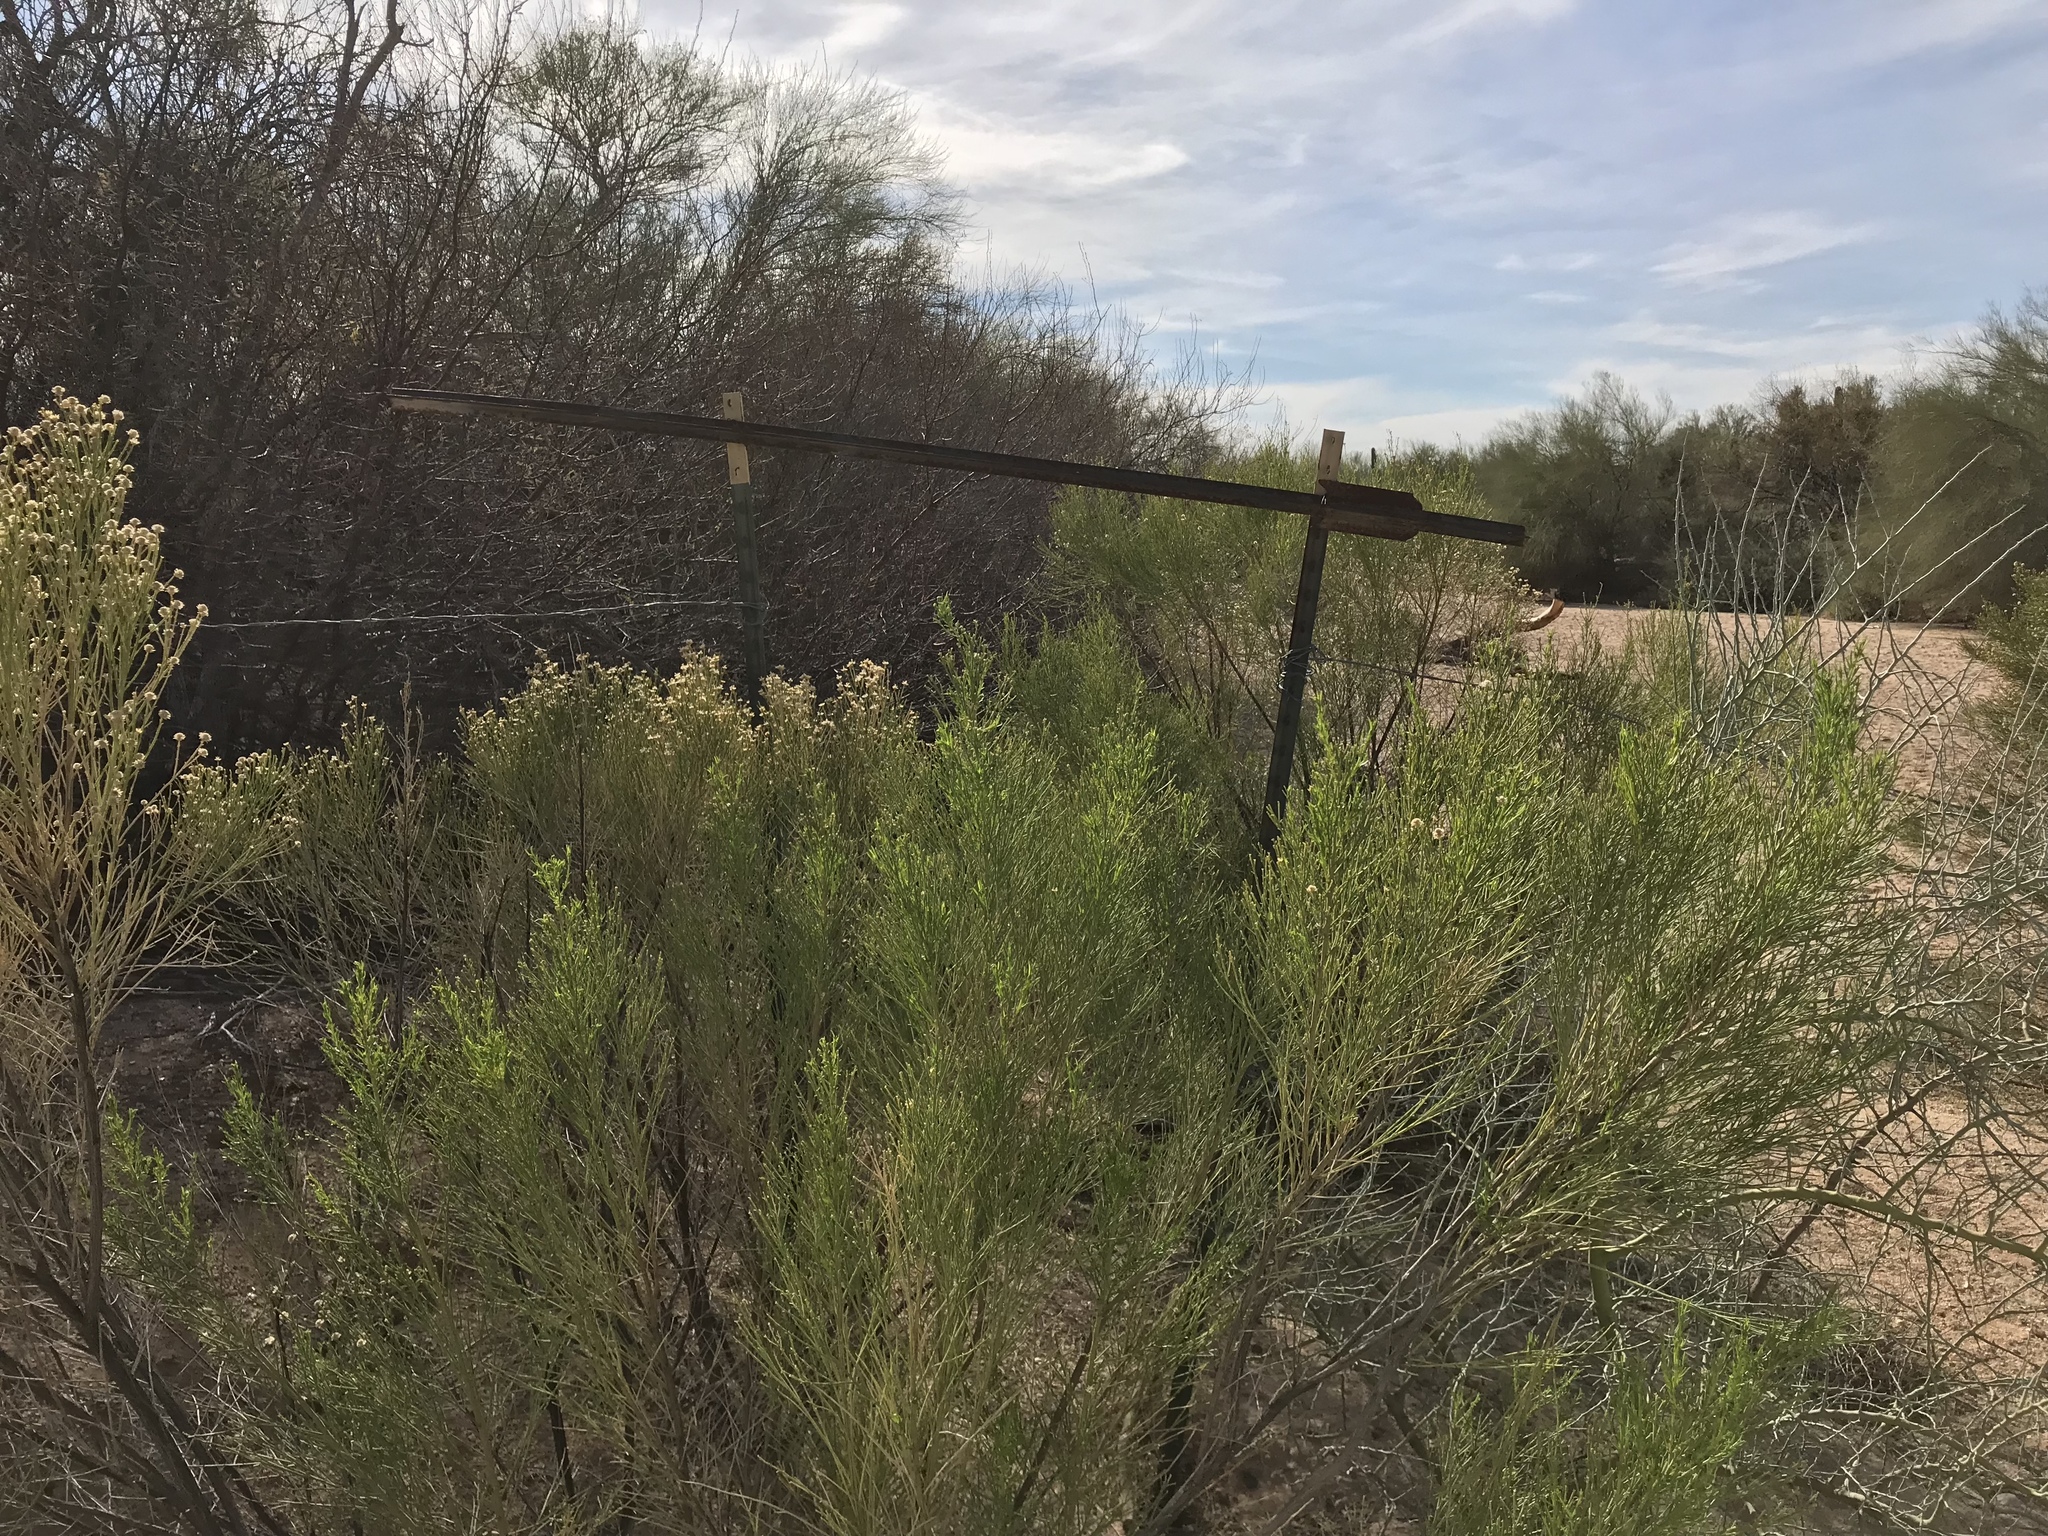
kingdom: Plantae
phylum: Tracheophyta
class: Magnoliopsida
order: Asterales
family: Asteraceae
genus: Baccharis
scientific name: Baccharis sarothroides
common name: Desert-broom
